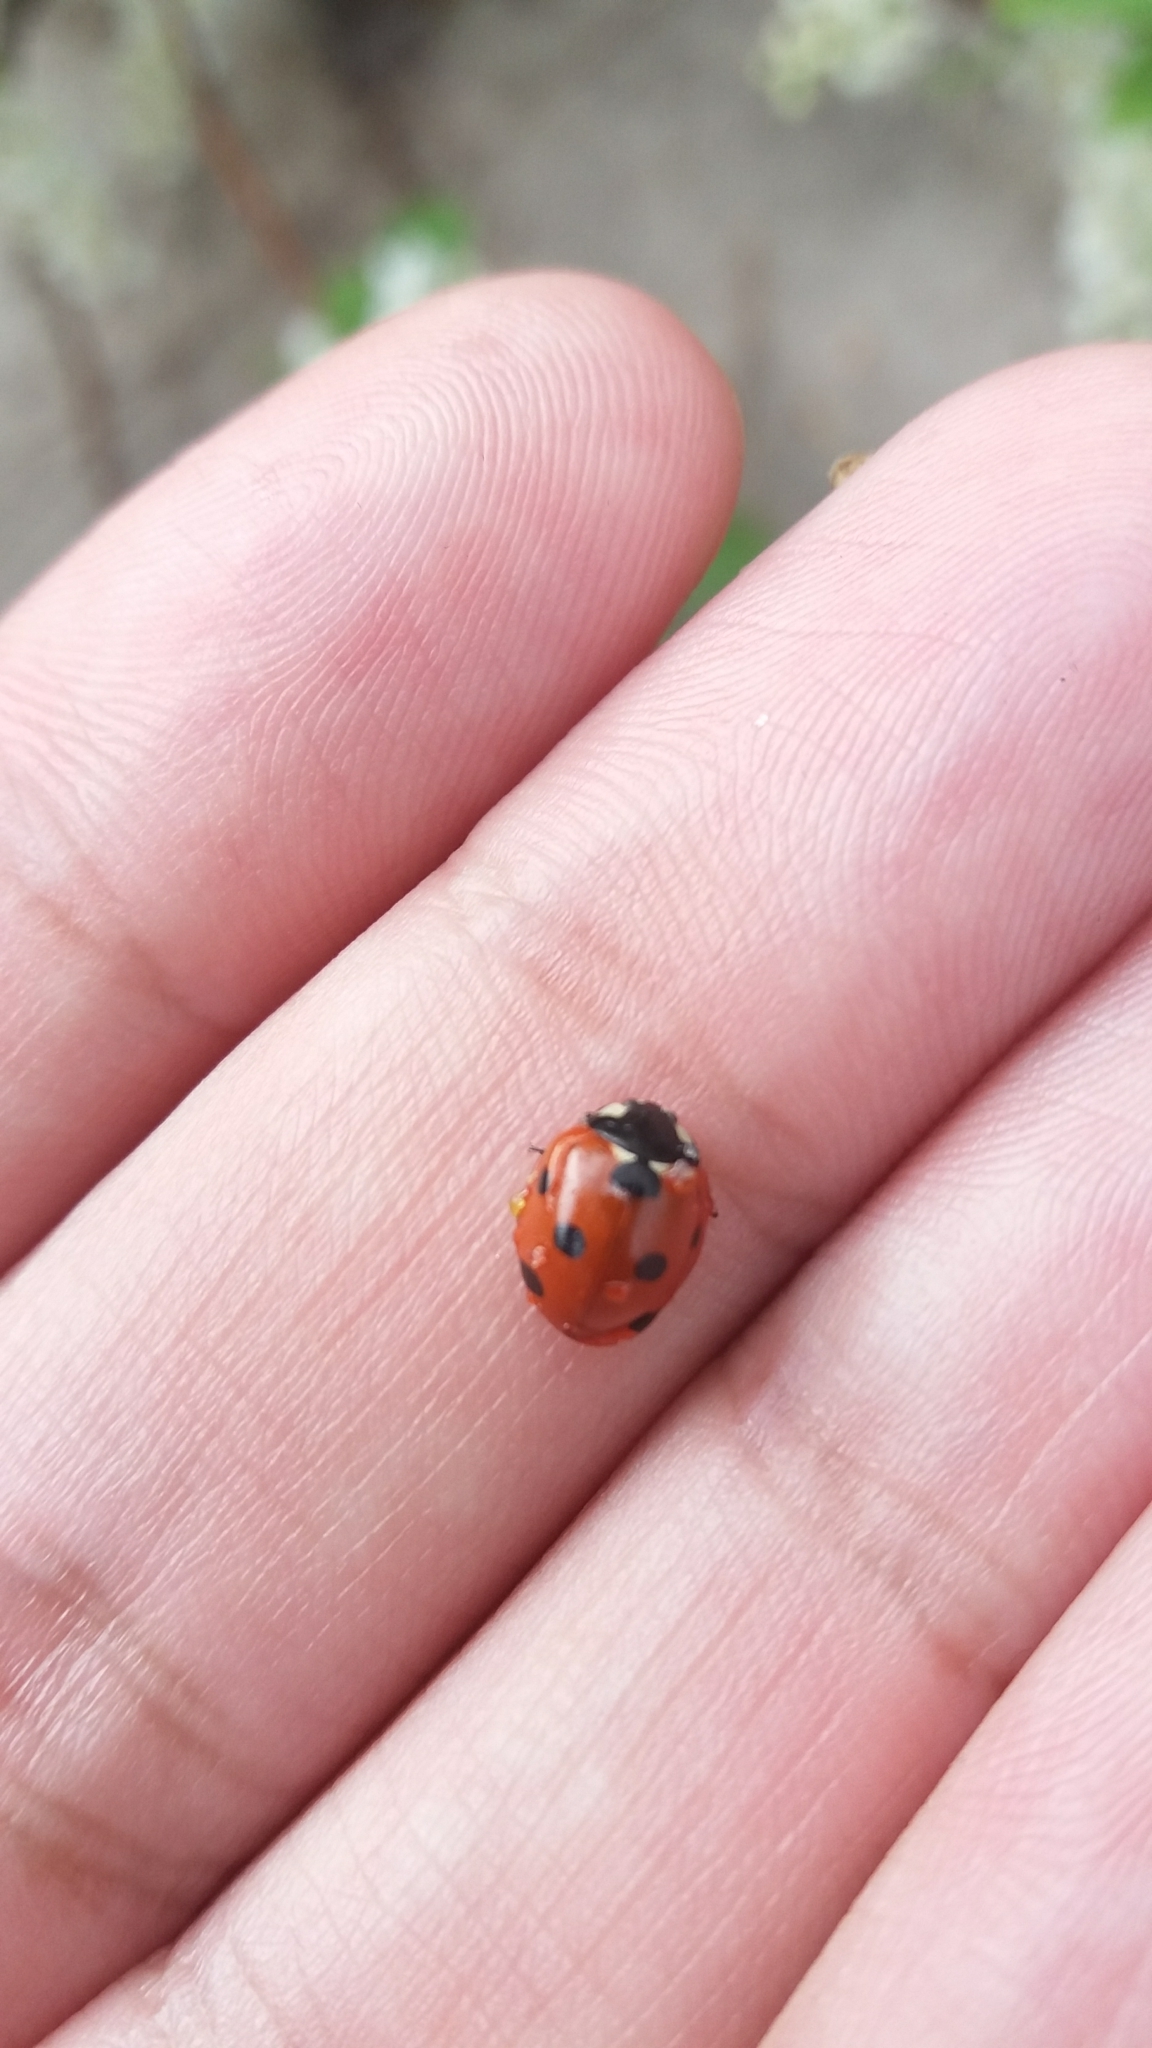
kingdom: Animalia
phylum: Arthropoda
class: Insecta
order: Coleoptera
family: Coccinellidae
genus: Coccinella
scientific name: Coccinella septempunctata
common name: Sevenspotted lady beetle
